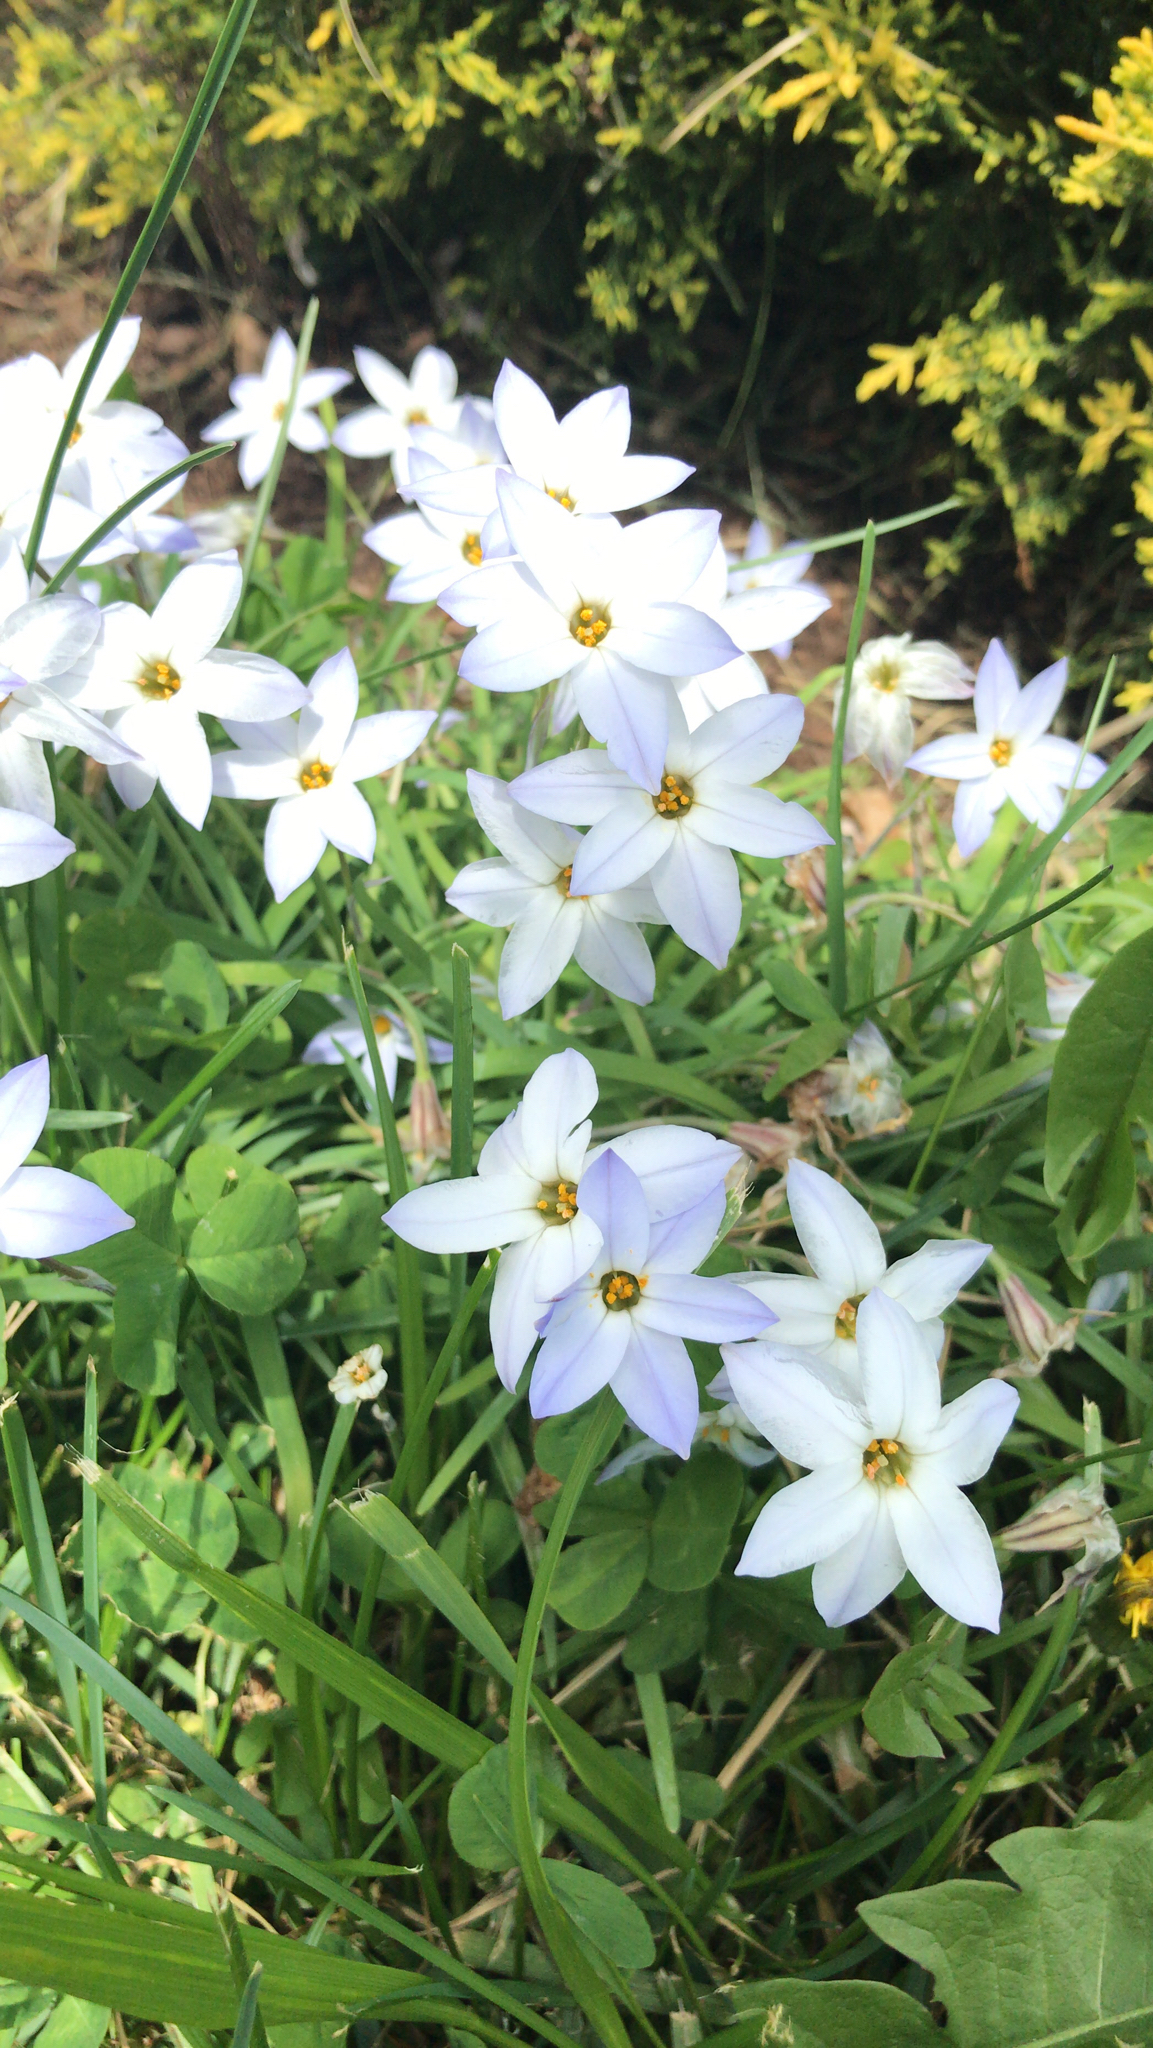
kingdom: Plantae
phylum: Tracheophyta
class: Liliopsida
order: Asparagales
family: Amaryllidaceae
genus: Ipheion
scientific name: Ipheion uniflorum
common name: Spring starflower
